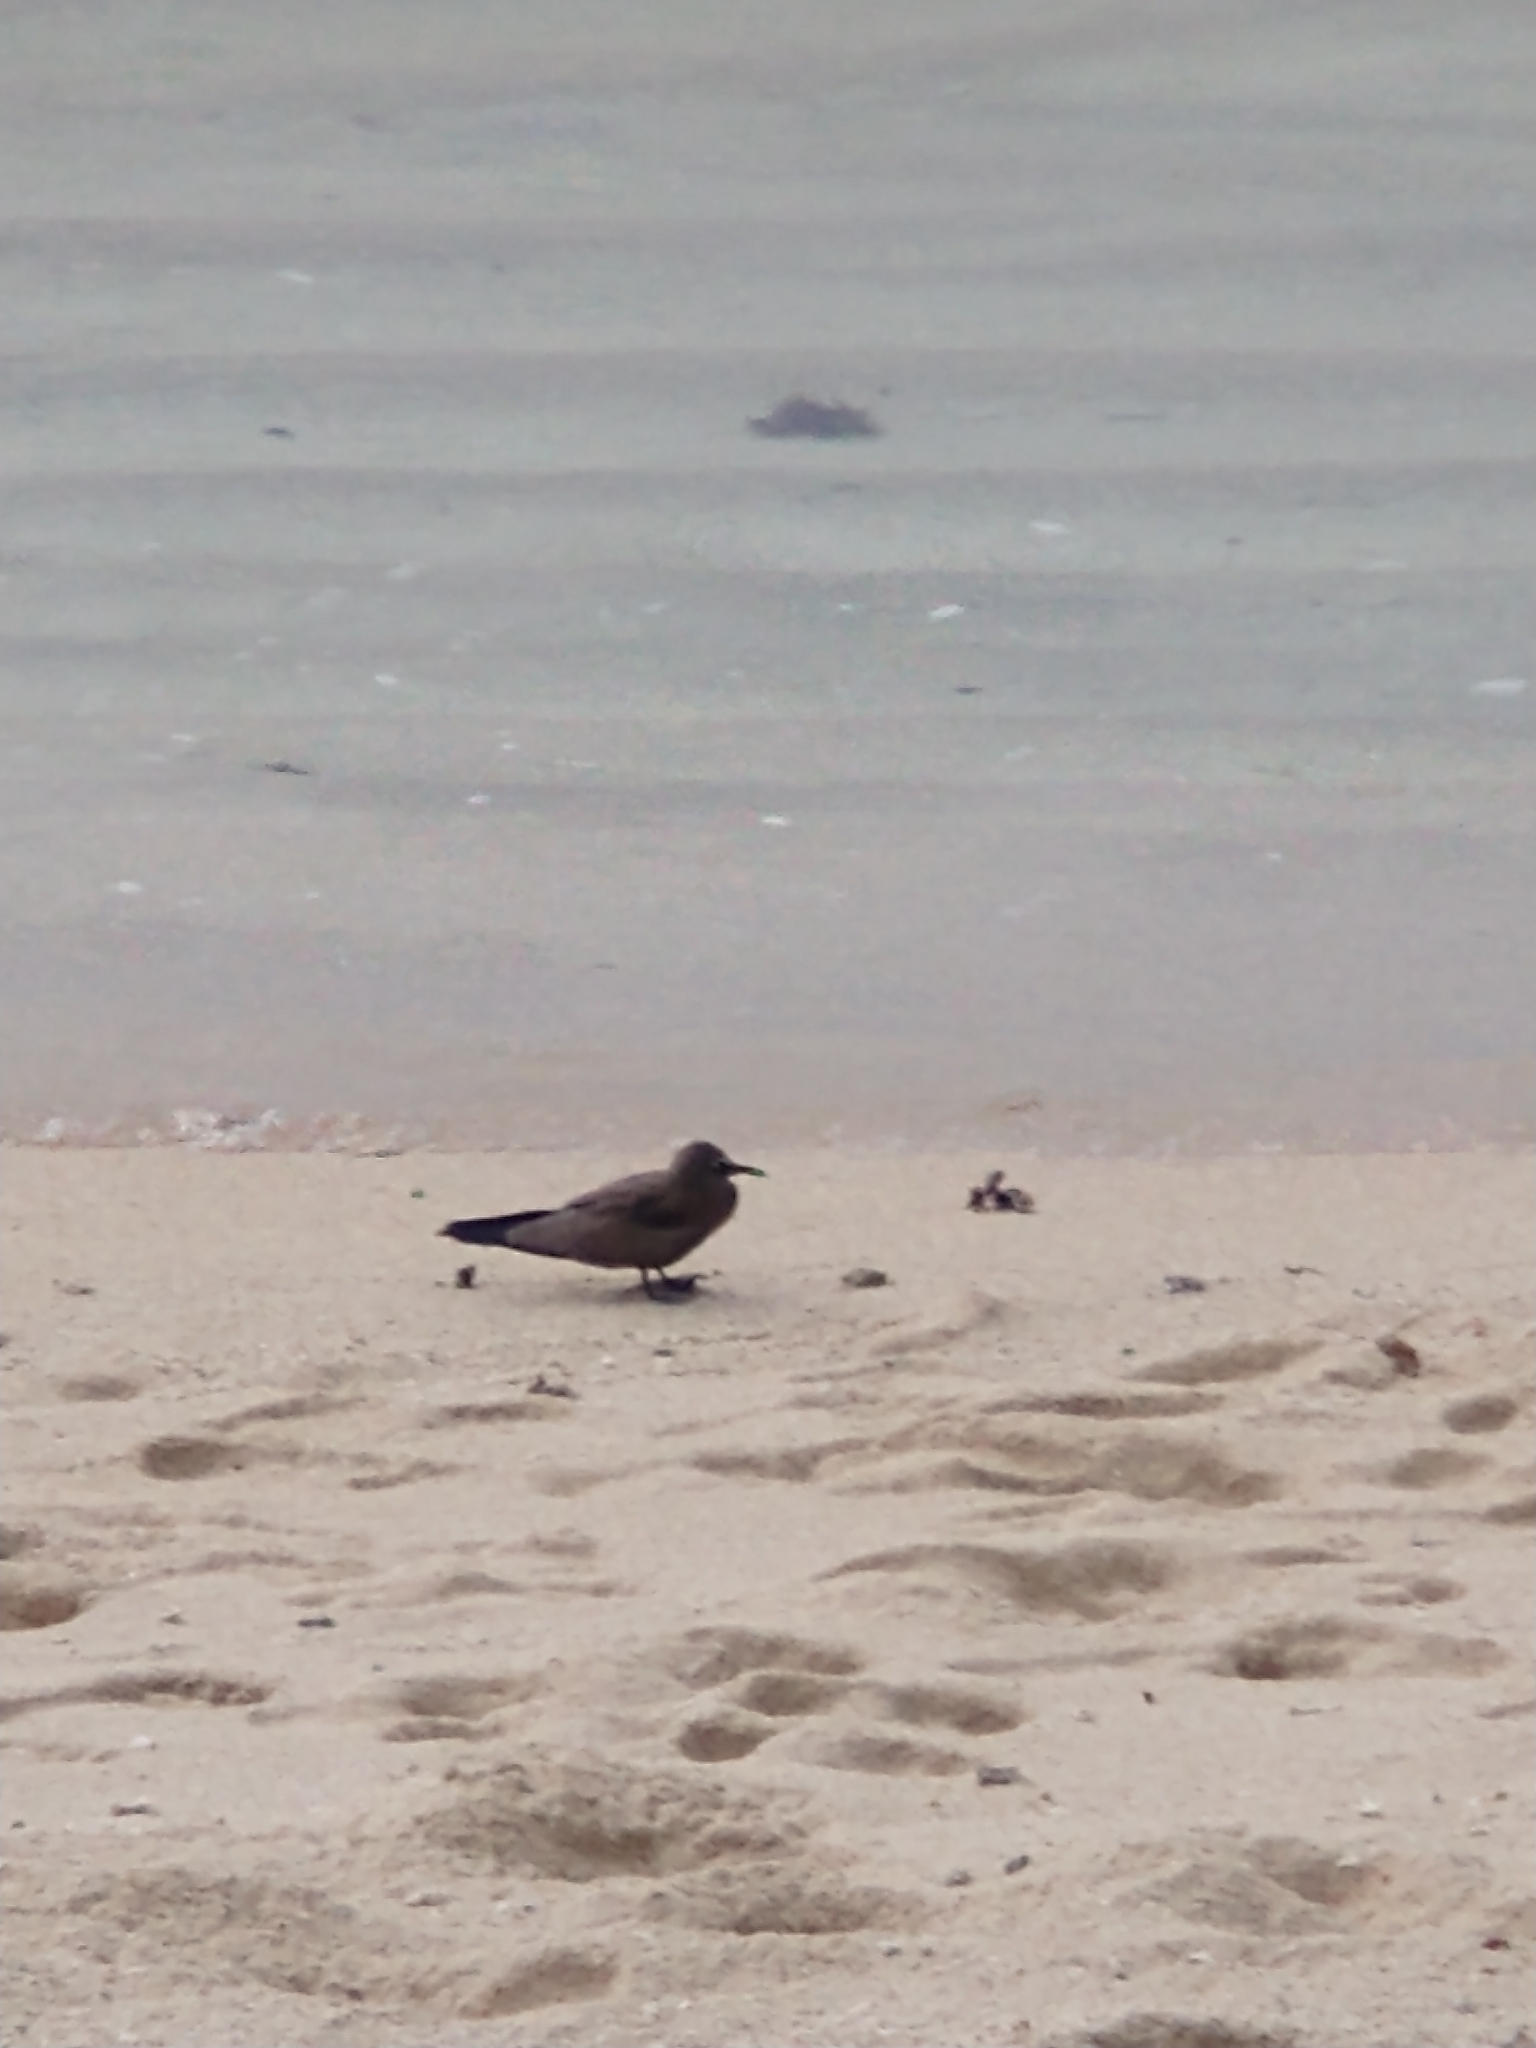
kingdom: Animalia
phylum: Chordata
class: Aves
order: Charadriiformes
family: Laridae
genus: Anous
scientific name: Anous stolidus
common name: Brown noddy
